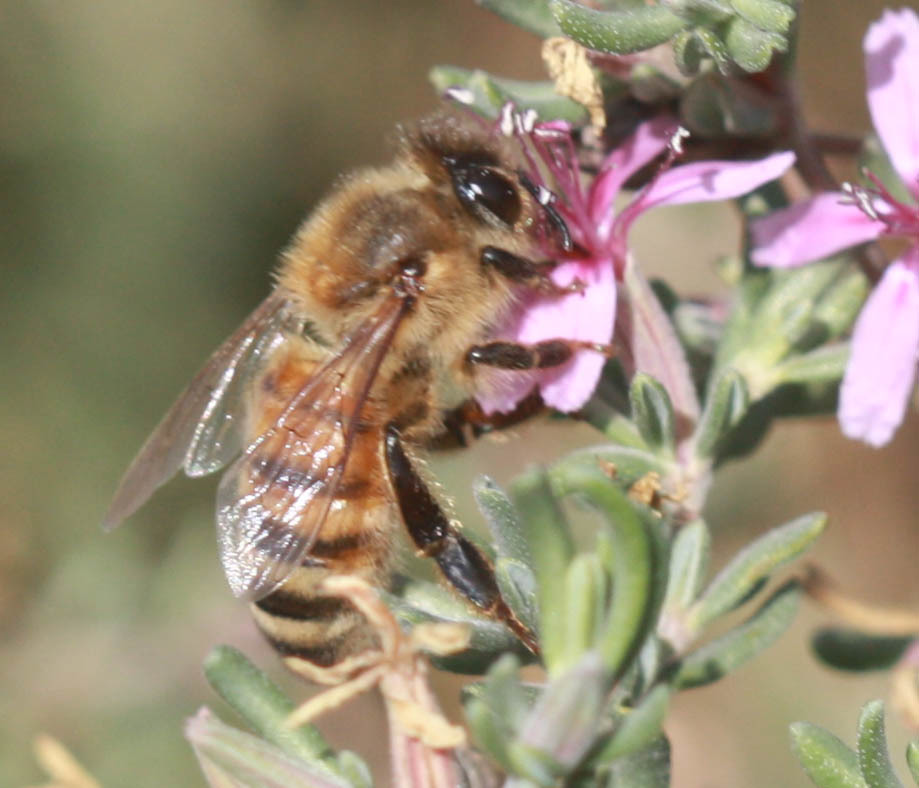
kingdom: Animalia
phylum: Arthropoda
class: Insecta
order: Hymenoptera
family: Apidae
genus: Apis
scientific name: Apis mellifera
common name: Honey bee
